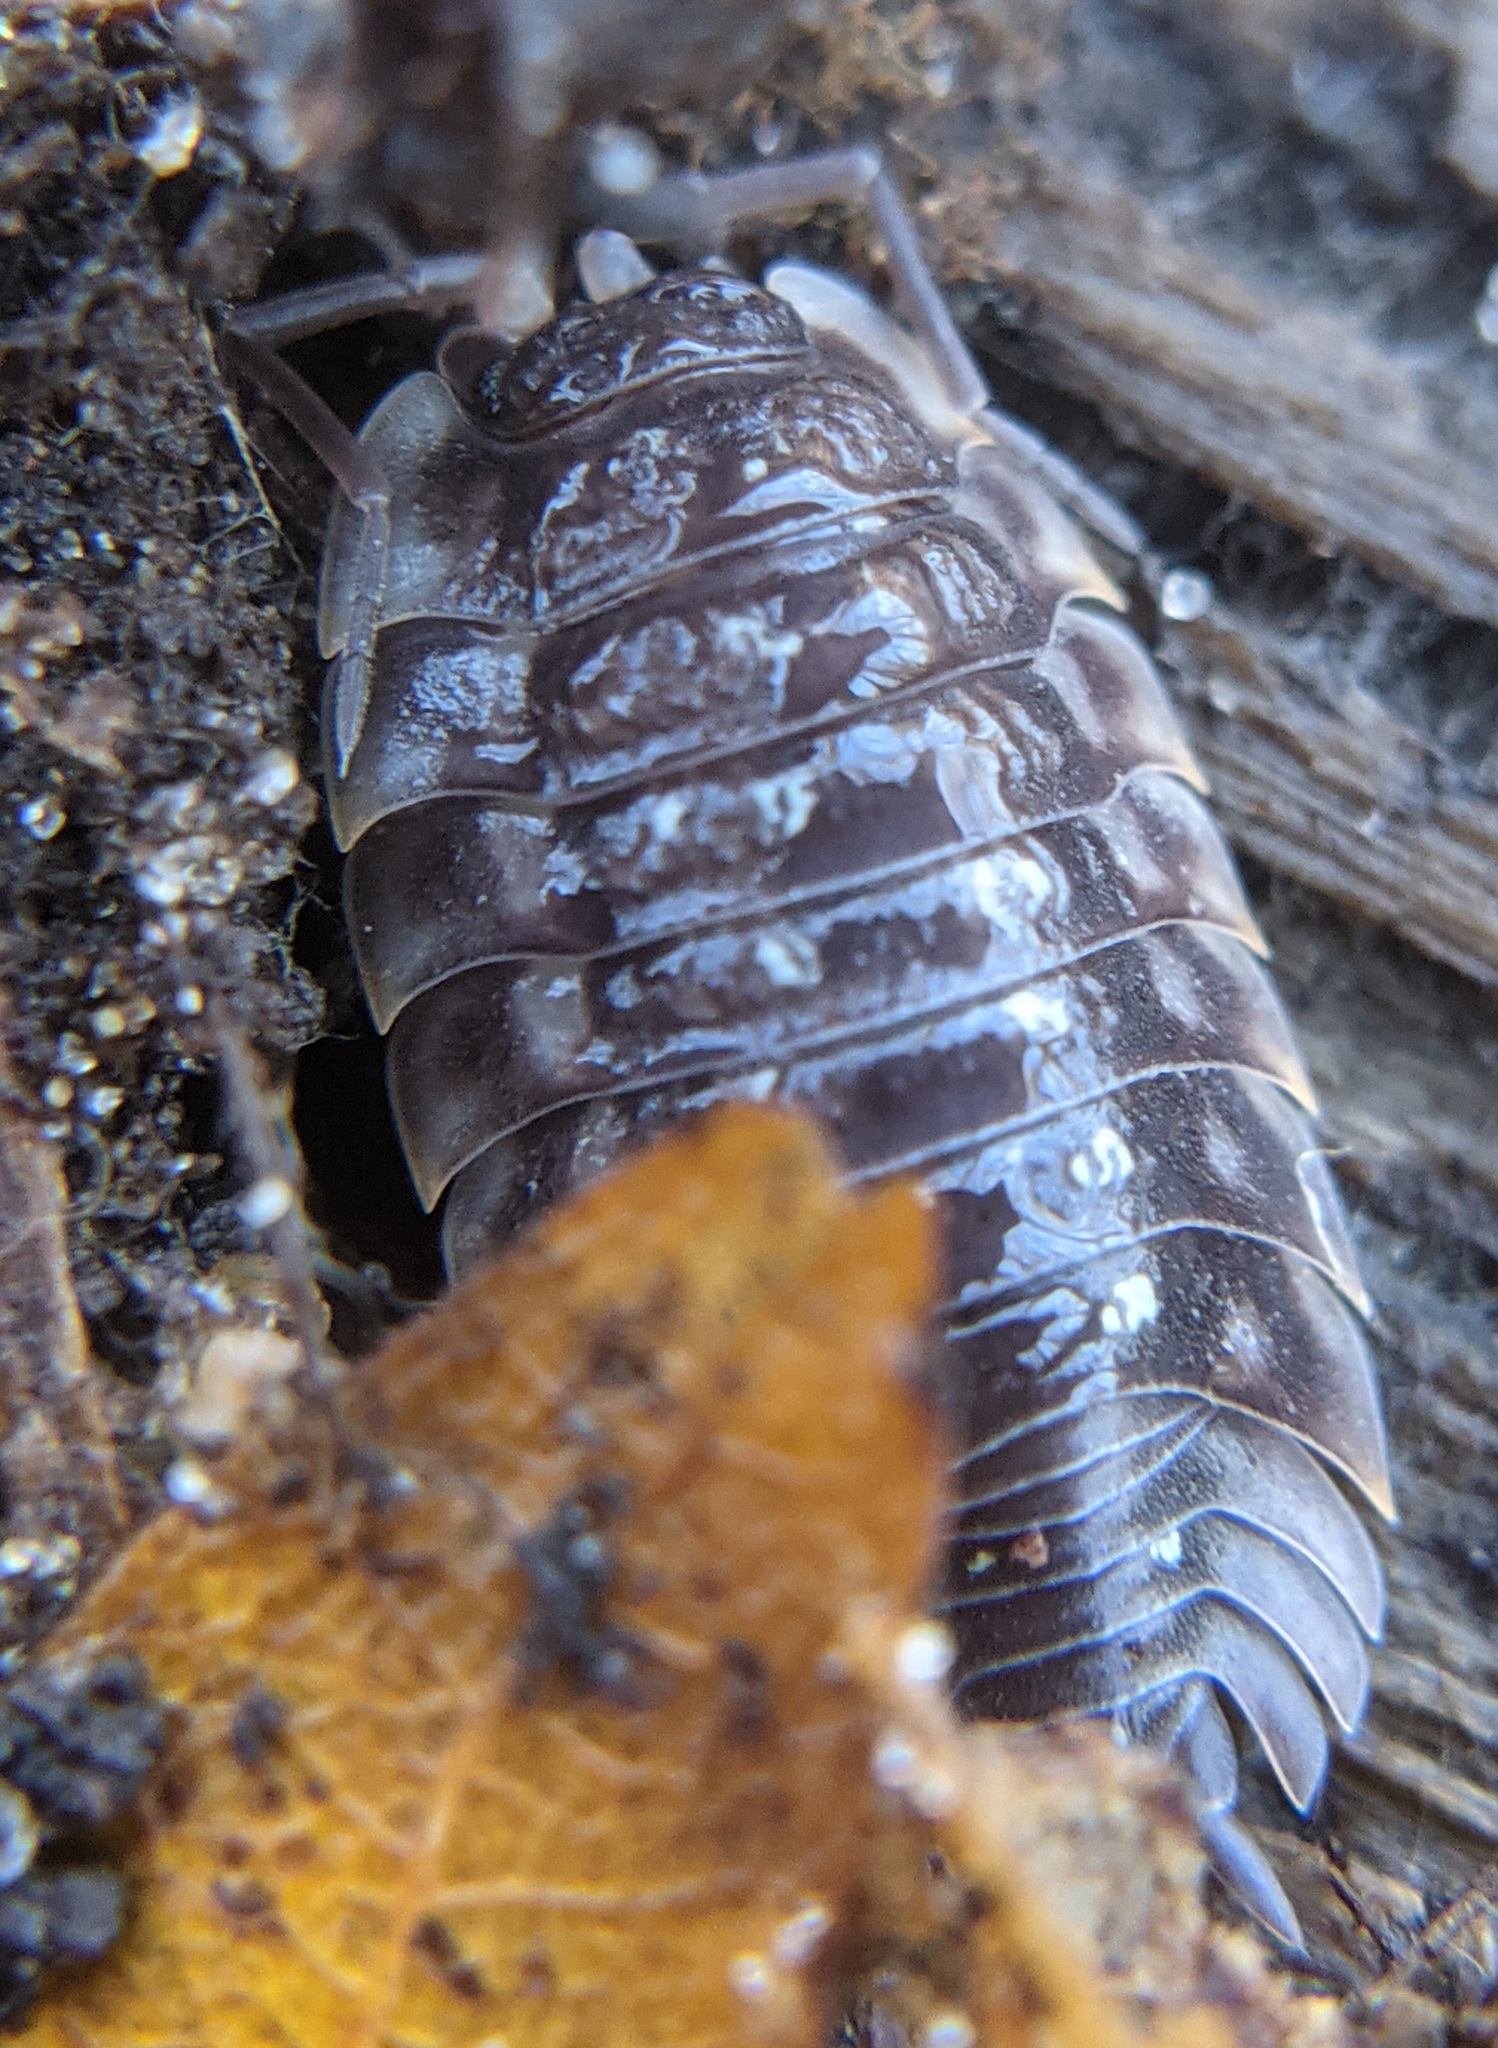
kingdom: Animalia
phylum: Arthropoda
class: Malacostraca
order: Isopoda
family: Oniscidae
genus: Oniscus
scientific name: Oniscus asellus
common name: Common shiny woodlouse
